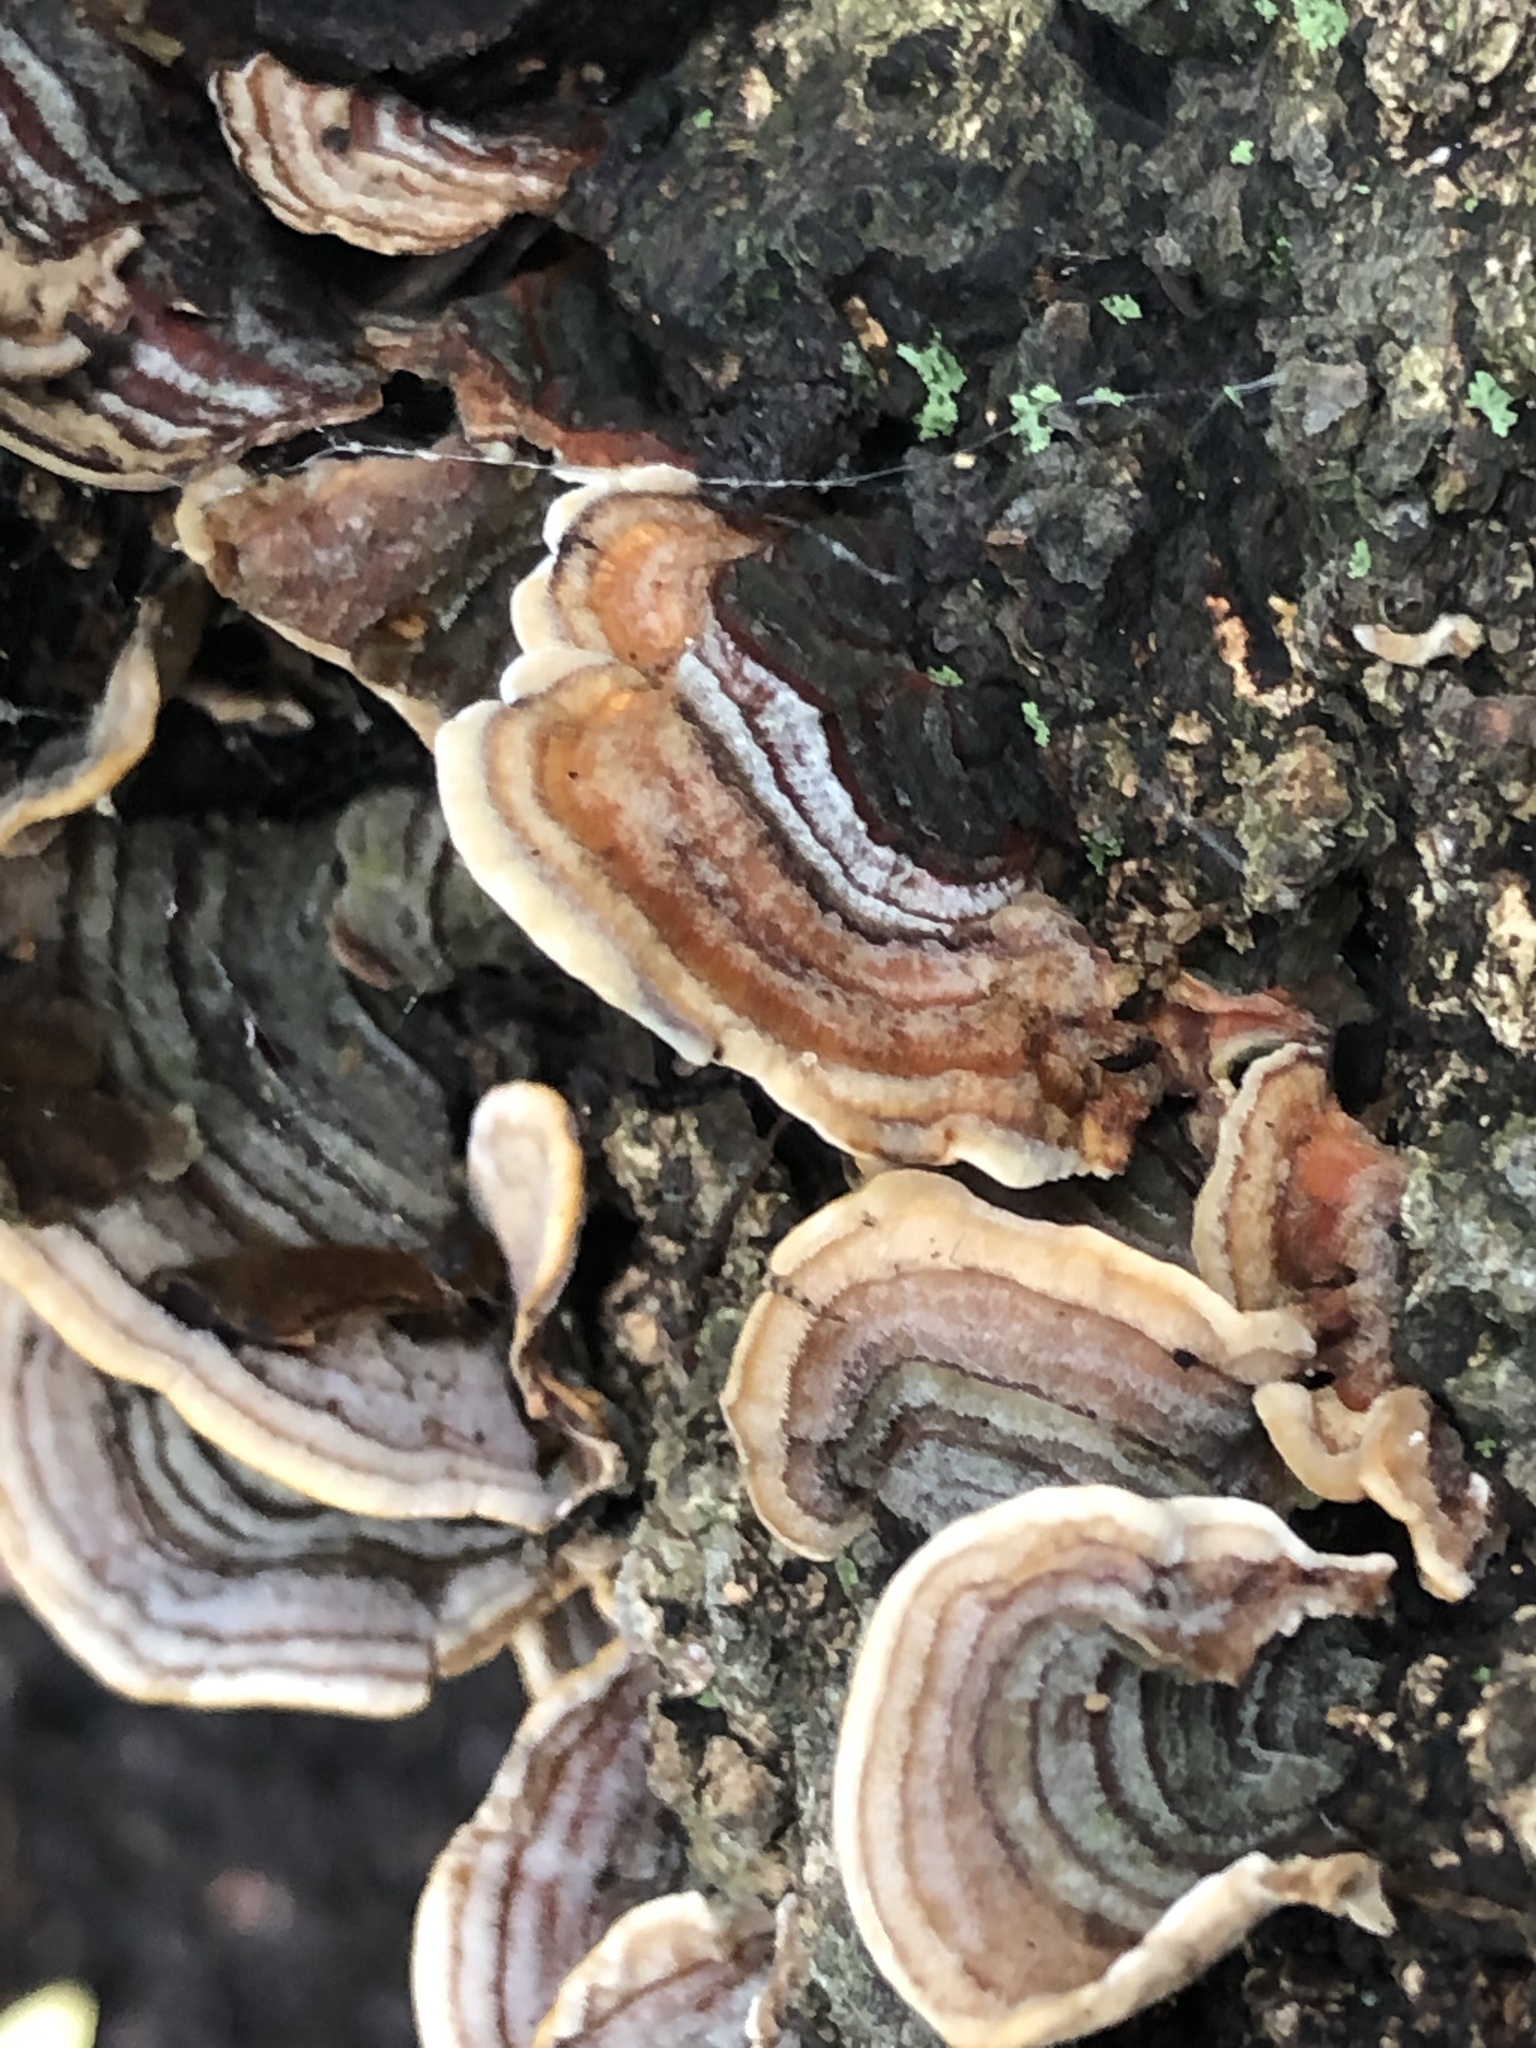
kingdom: Fungi
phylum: Basidiomycota
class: Agaricomycetes
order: Russulales
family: Stereaceae
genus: Stereum
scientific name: Stereum subtomentosum
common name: Yellowing curtain crust
